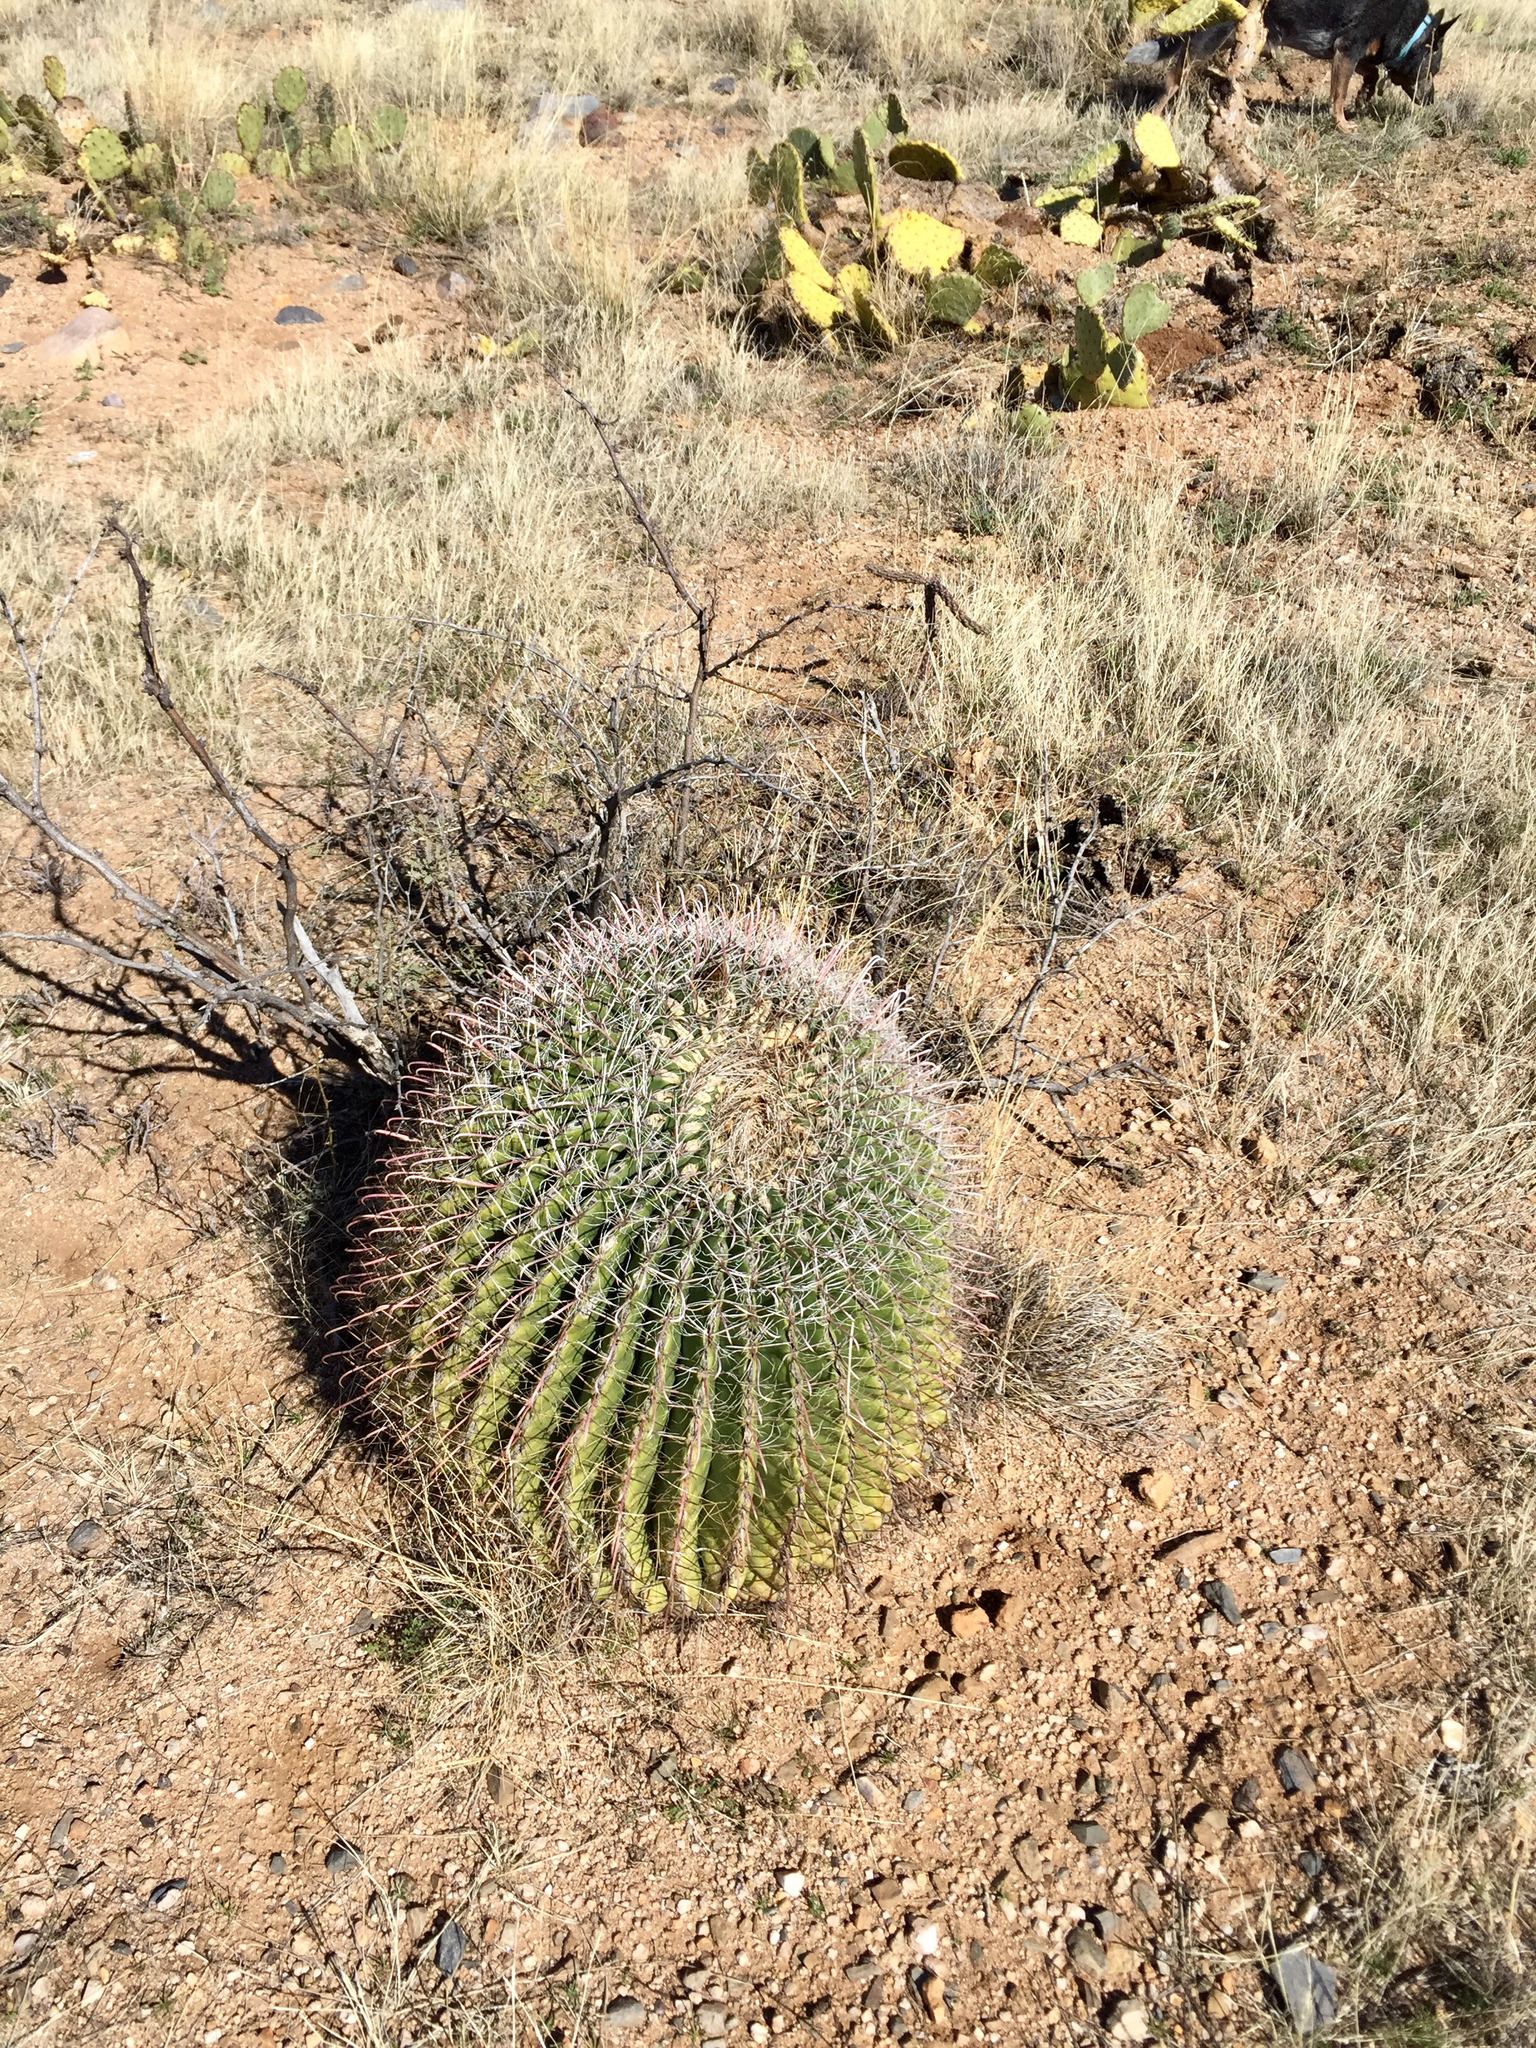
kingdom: Plantae
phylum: Tracheophyta
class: Magnoliopsida
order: Caryophyllales
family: Cactaceae
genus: Ferocactus
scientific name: Ferocactus wislizeni
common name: Candy barrel cactus
